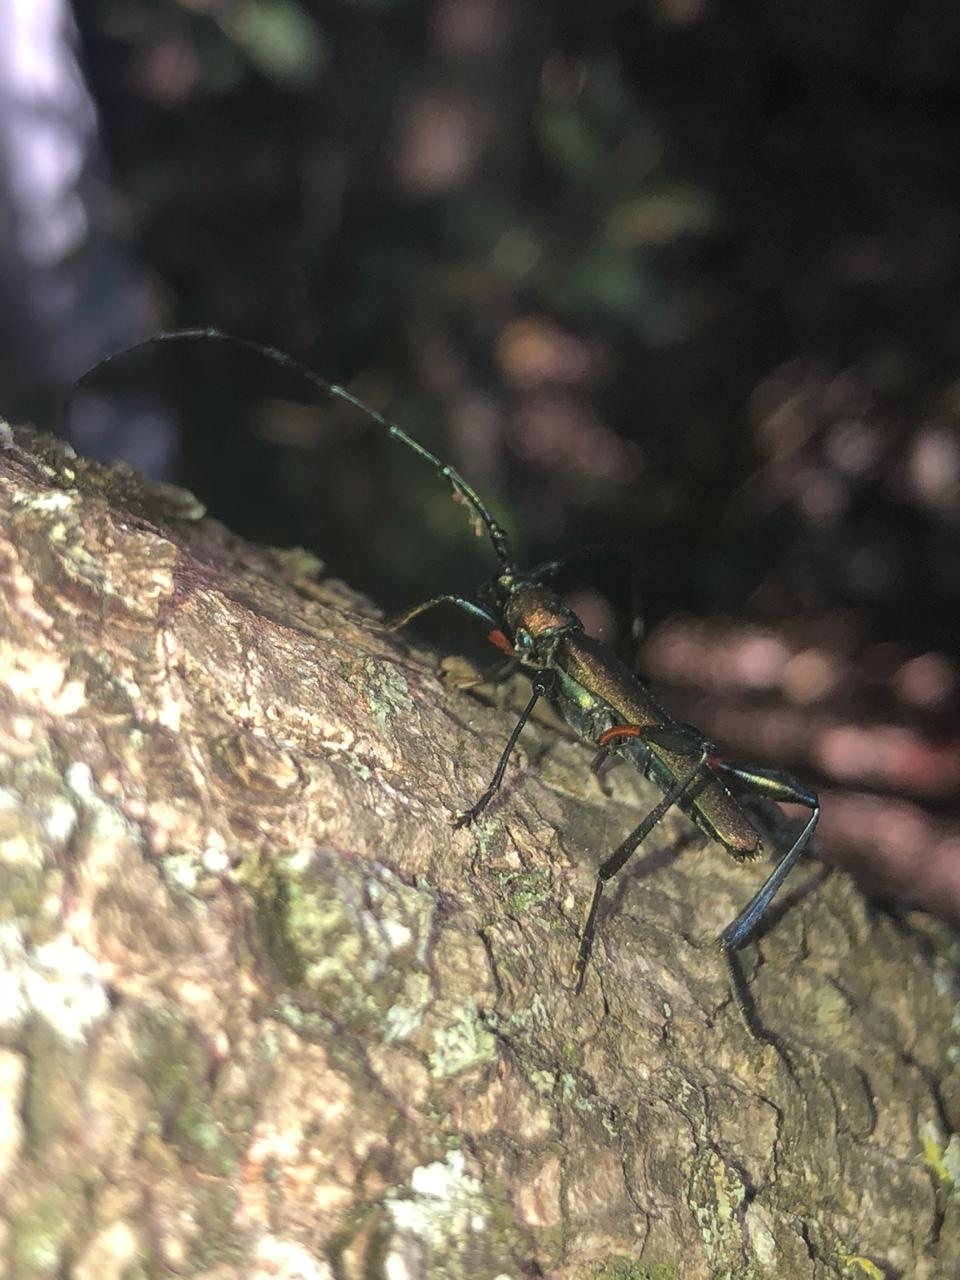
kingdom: Animalia
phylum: Arthropoda
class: Insecta
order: Coleoptera
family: Cerambycidae
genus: Litopus
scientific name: Litopus latipes
